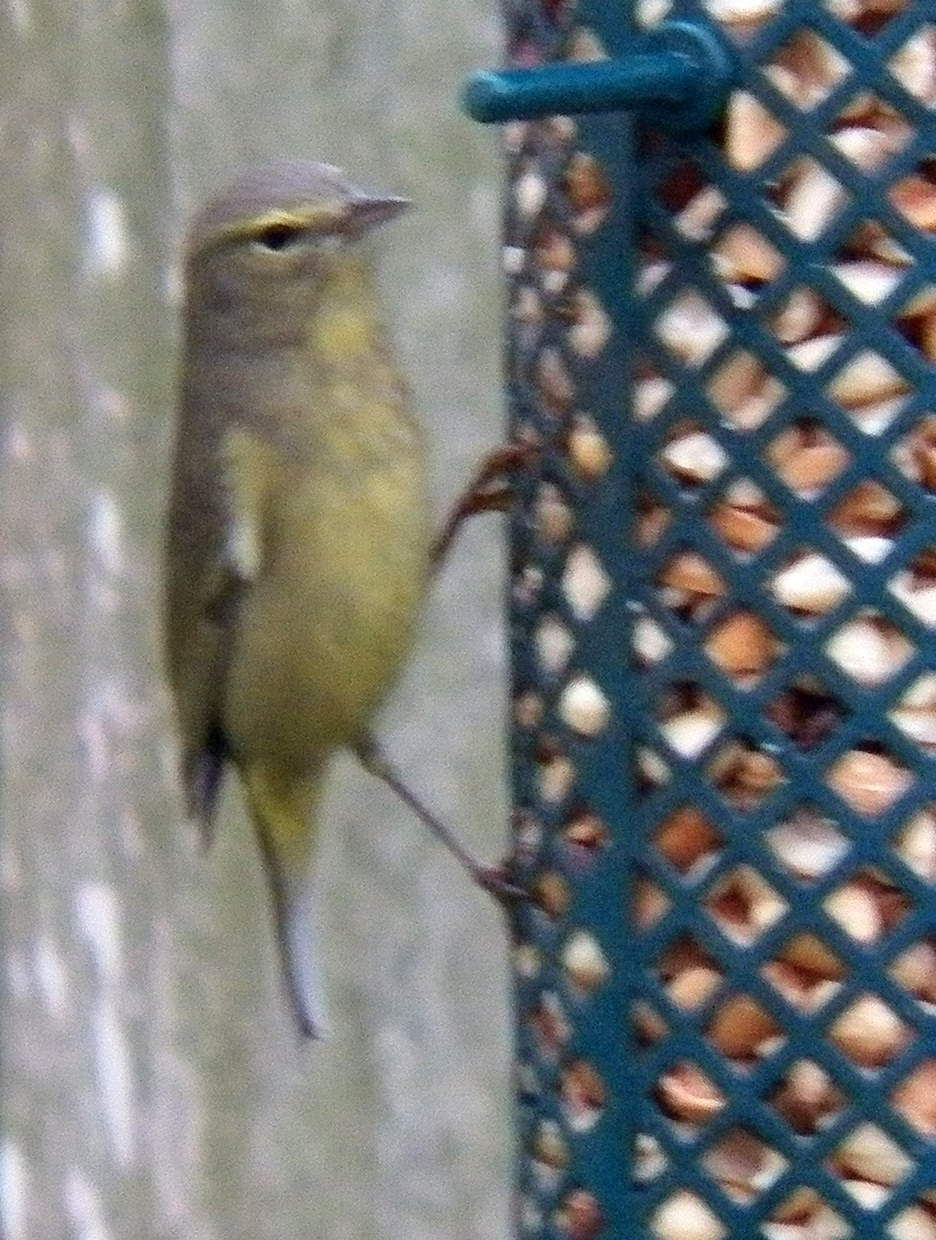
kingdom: Animalia
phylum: Chordata
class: Aves
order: Passeriformes
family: Parulidae
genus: Leiothlypis
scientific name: Leiothlypis celata
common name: Orange-crowned warbler
